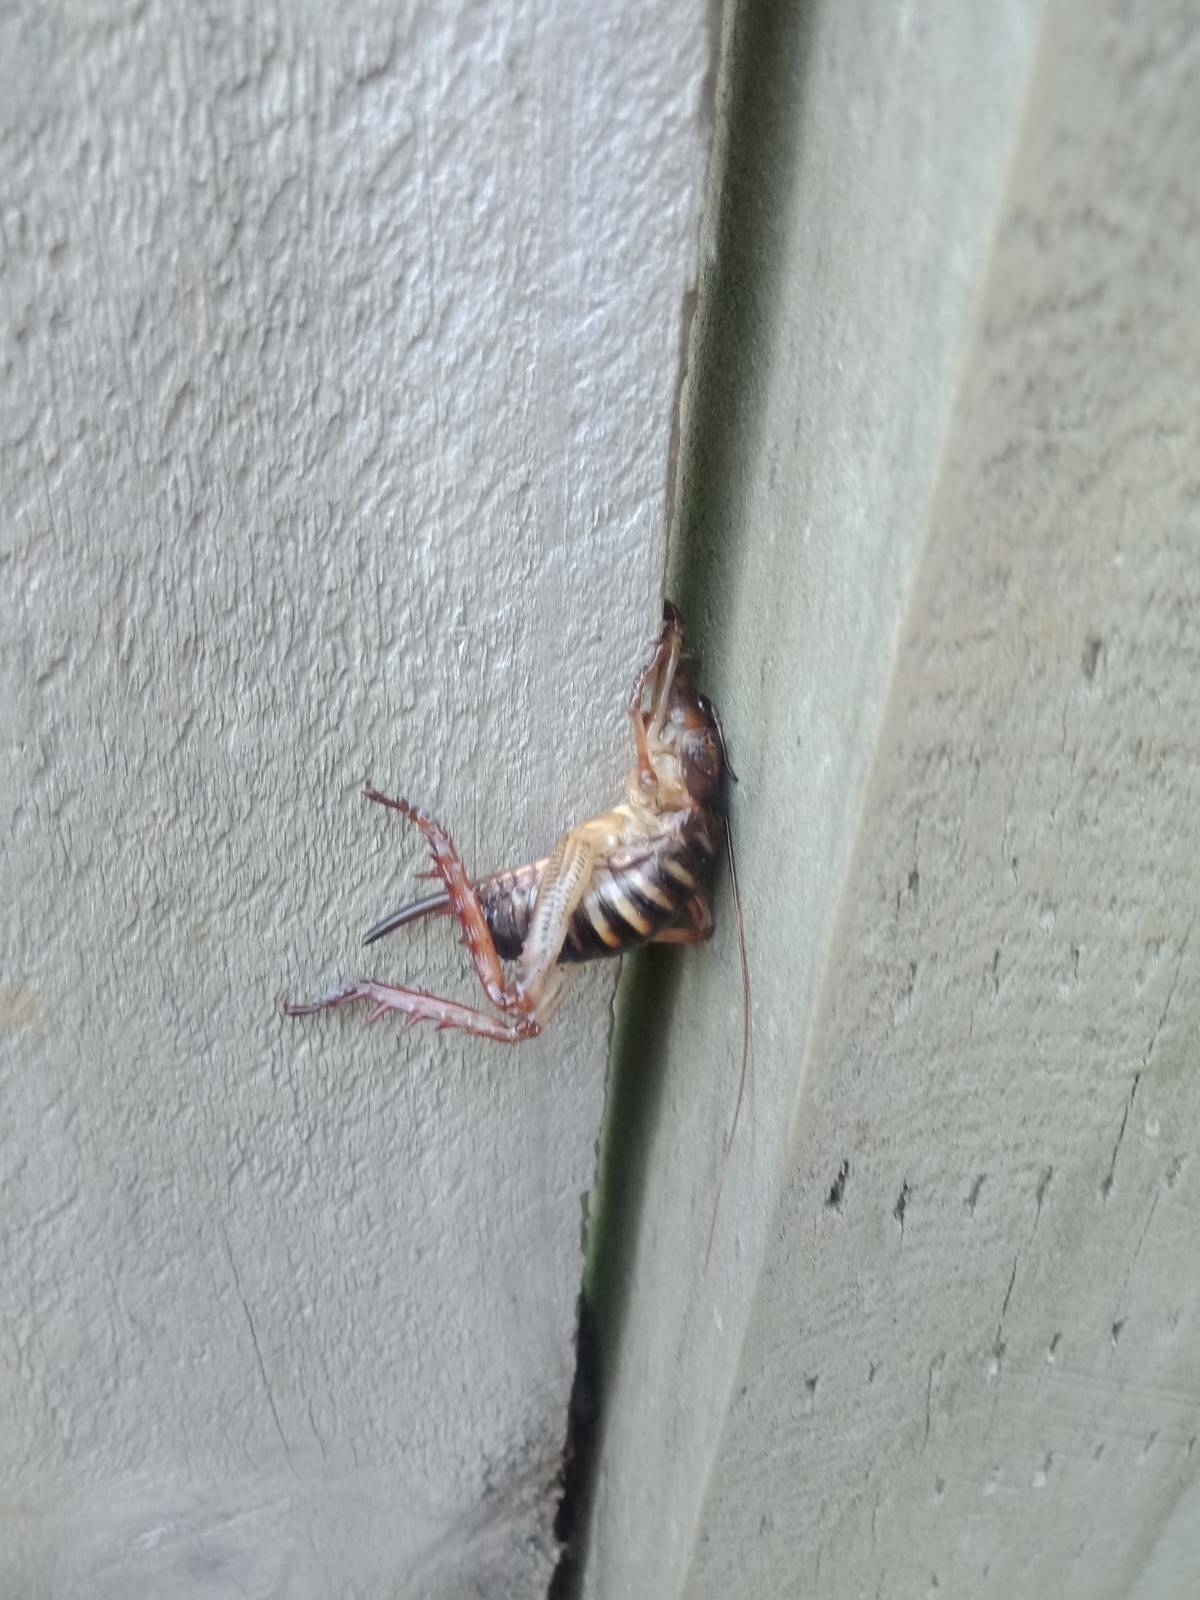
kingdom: Animalia
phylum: Arthropoda
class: Insecta
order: Orthoptera
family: Anostostomatidae
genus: Hemideina
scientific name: Hemideina crassidens
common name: Wellington tree weta
